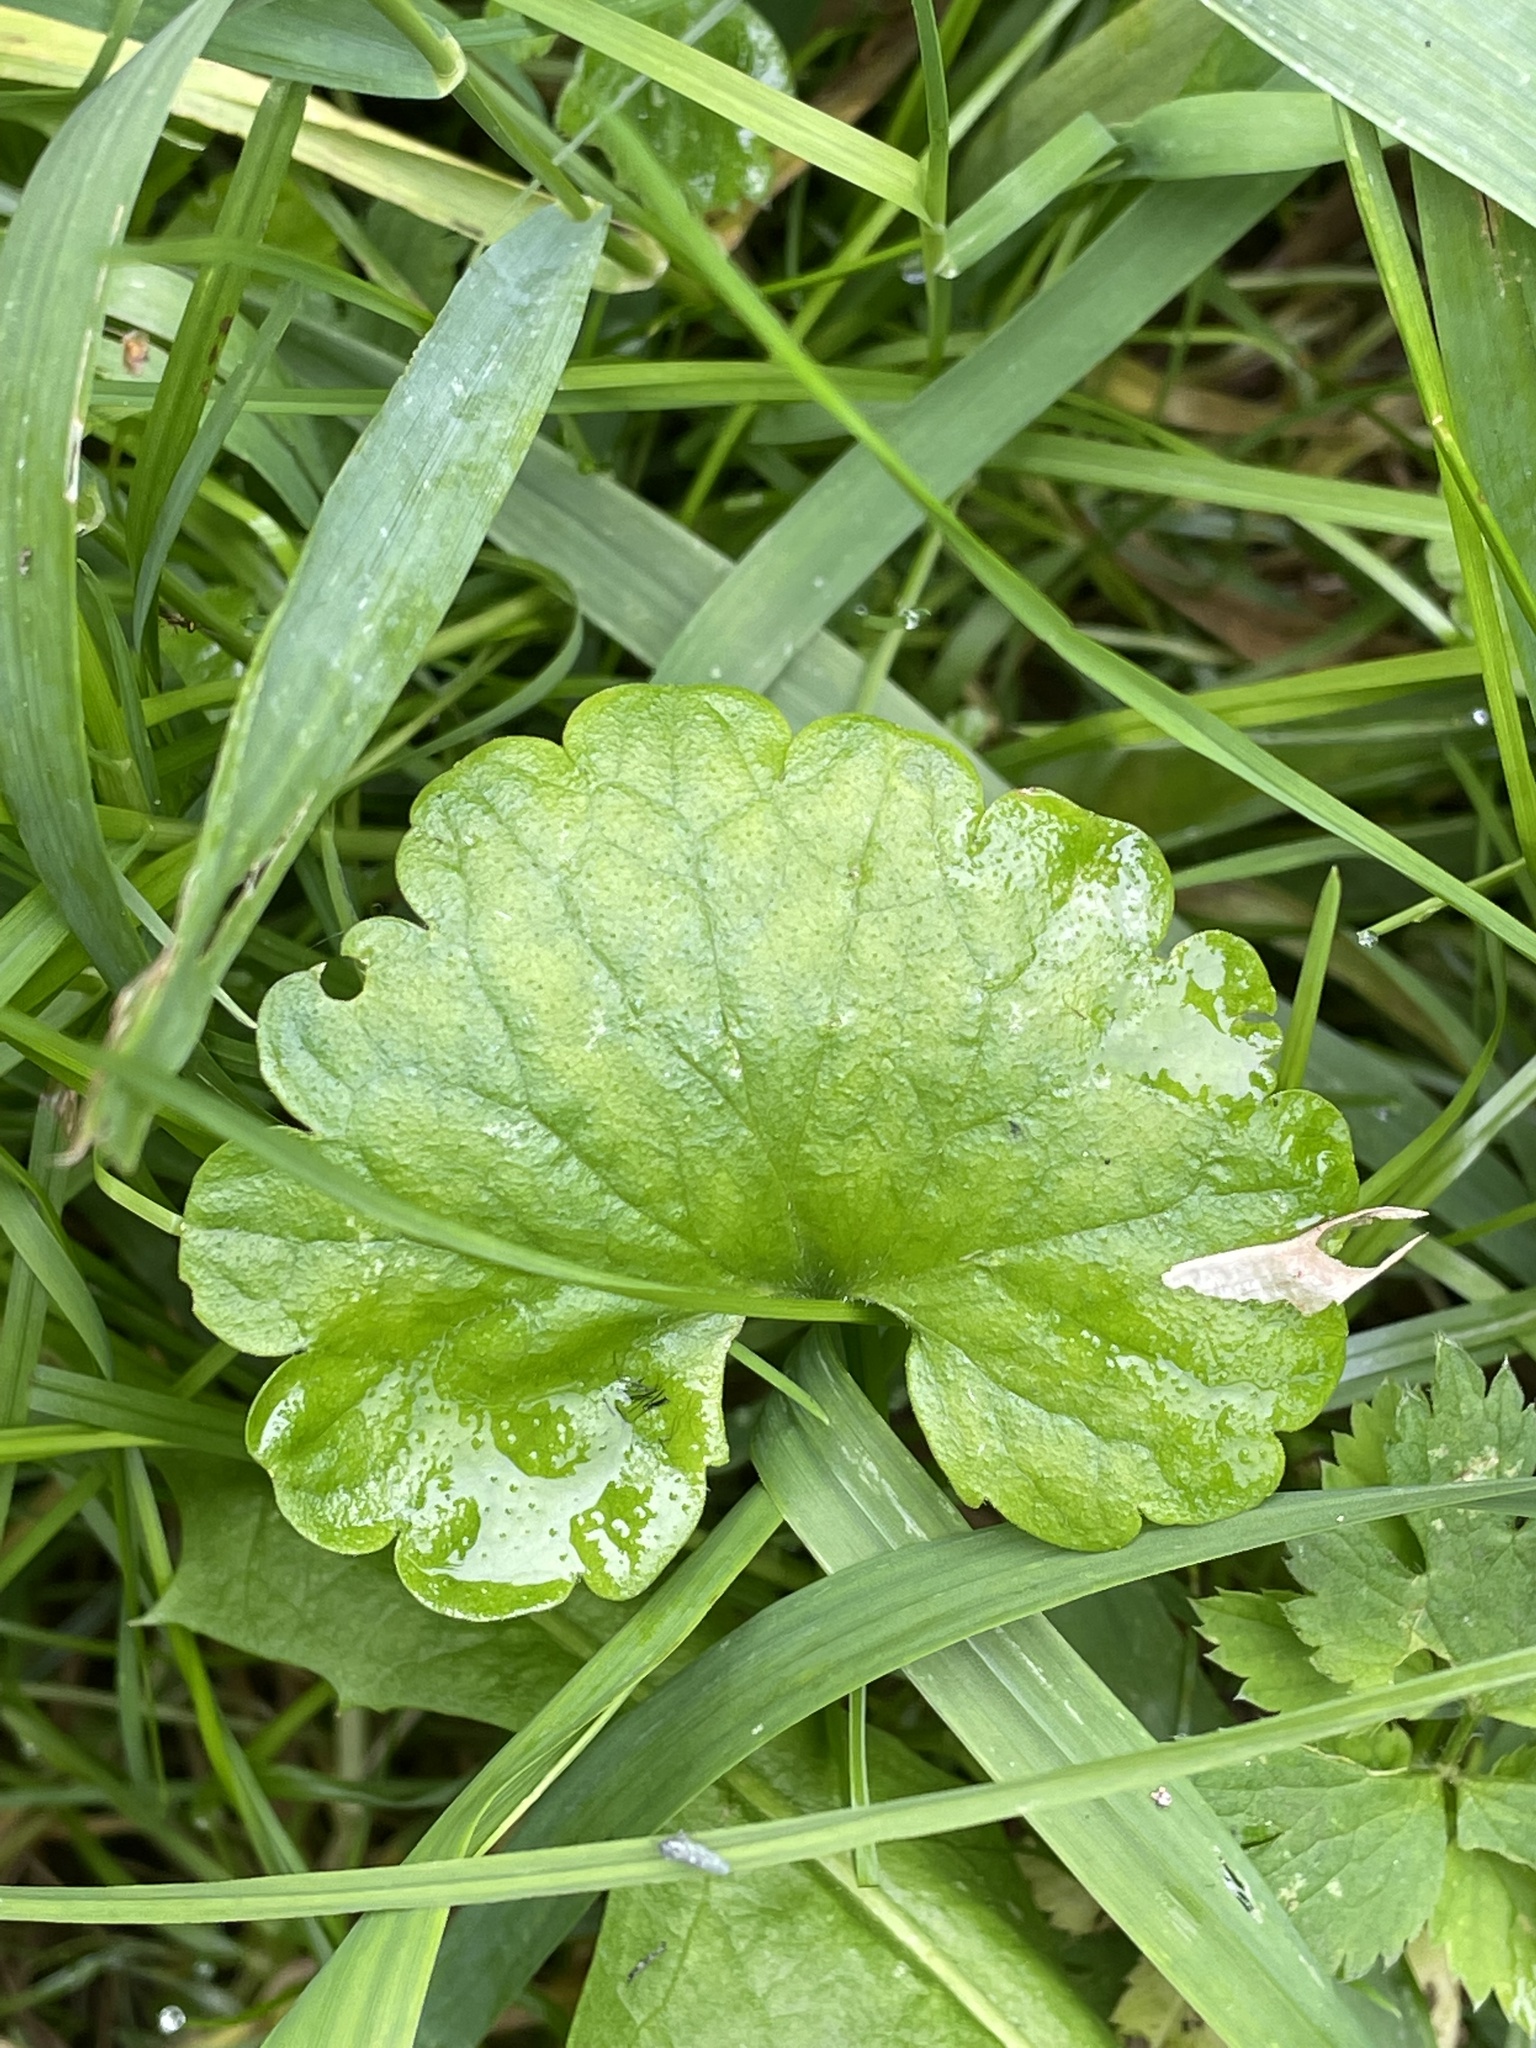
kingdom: Plantae
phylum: Tracheophyta
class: Magnoliopsida
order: Lamiales
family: Lamiaceae
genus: Glechoma
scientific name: Glechoma hederacea
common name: Ground ivy
